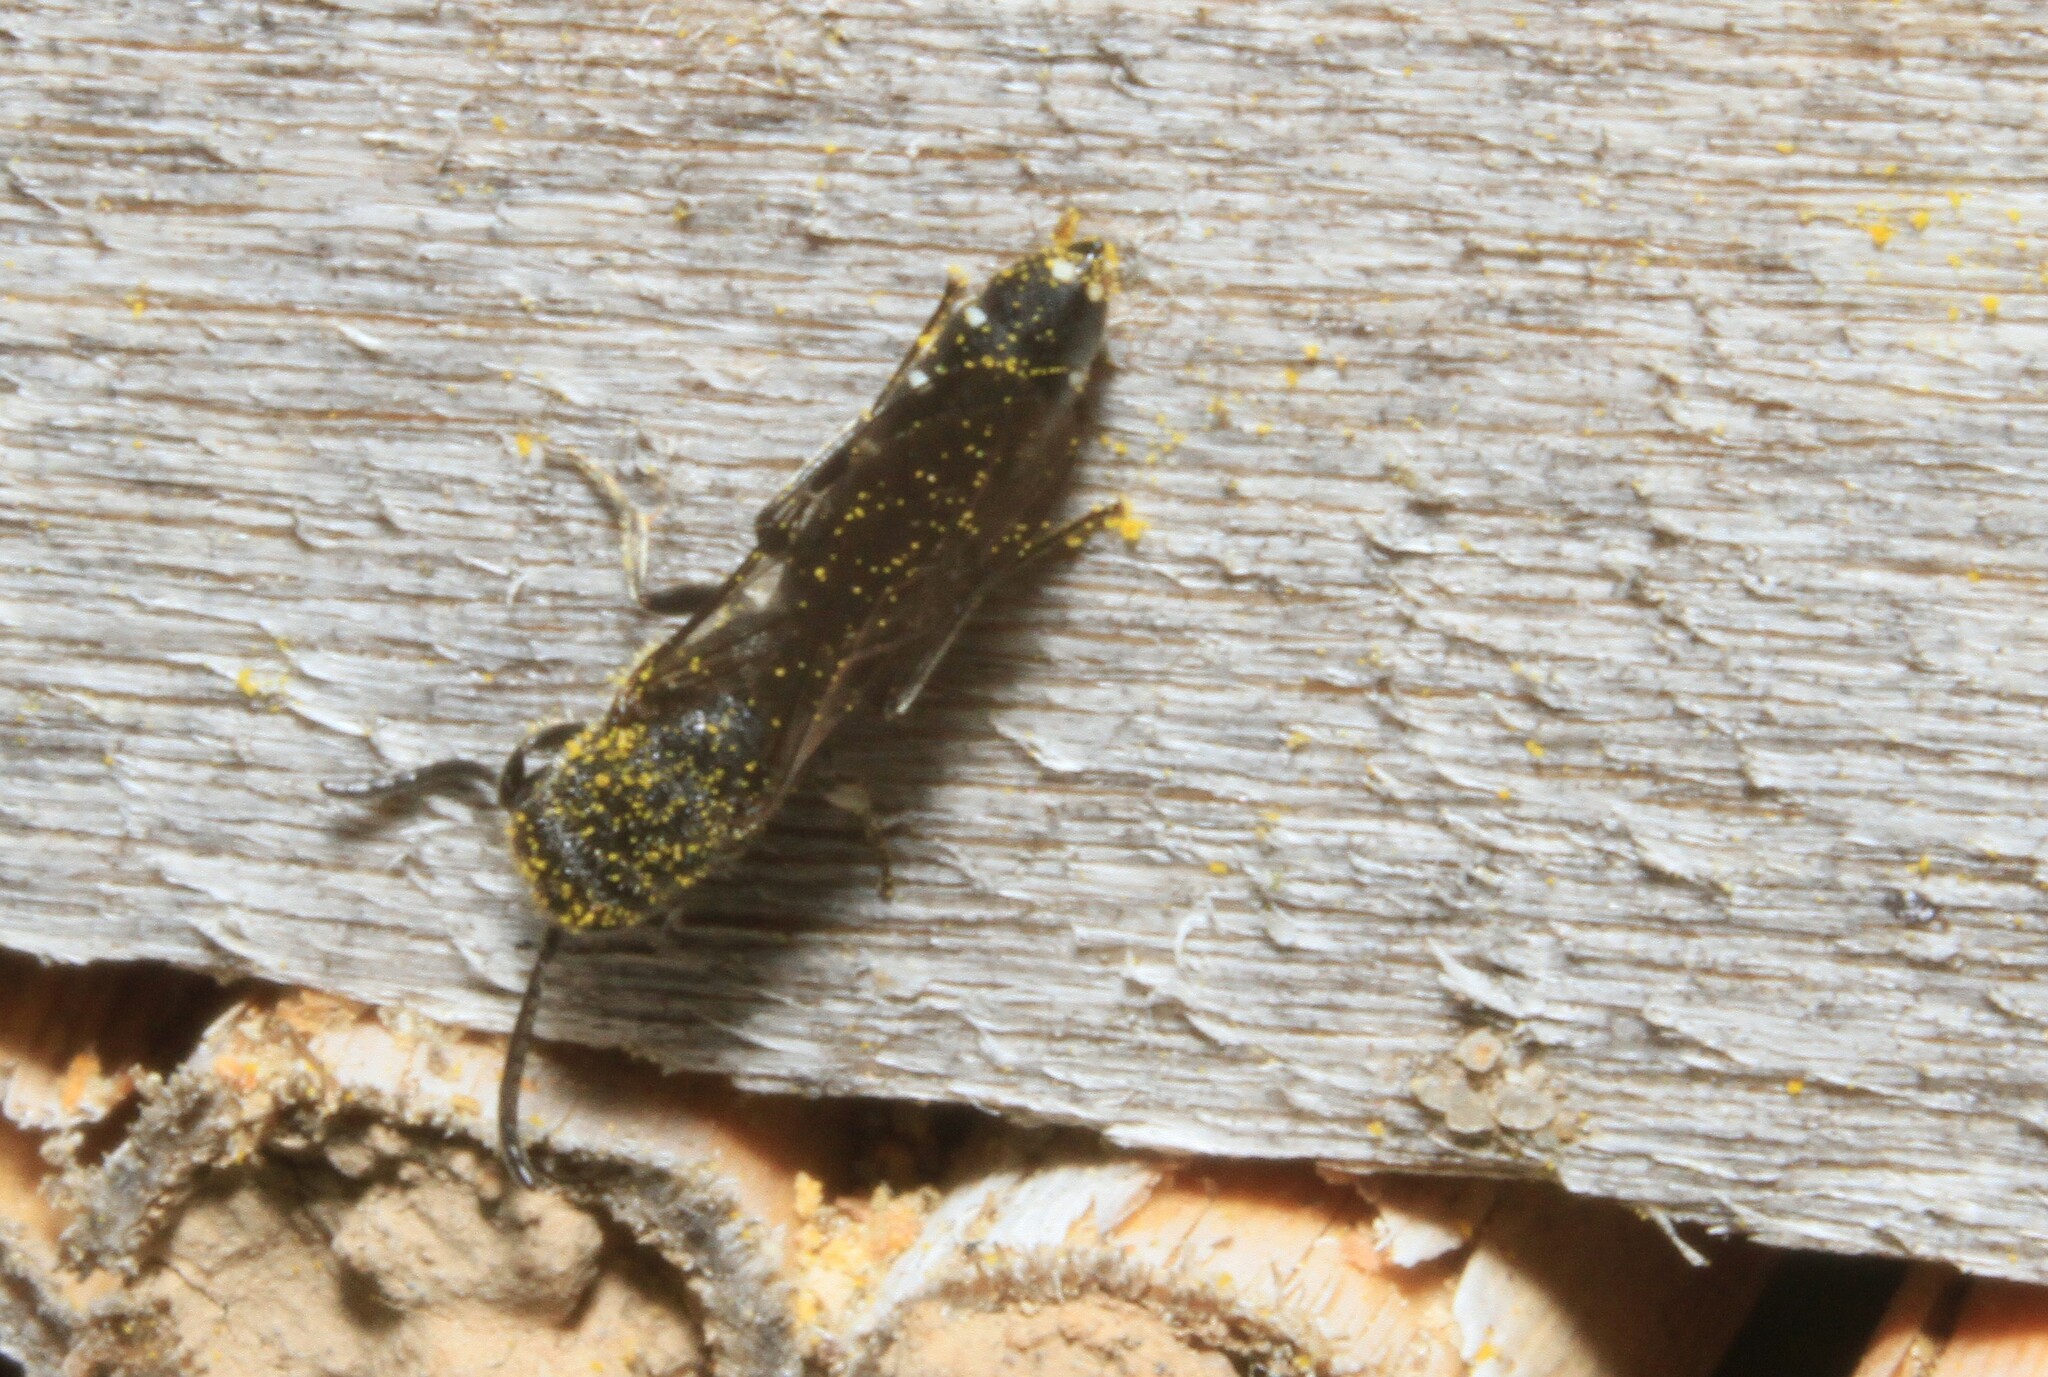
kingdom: Animalia
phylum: Arthropoda
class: Insecta
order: Hymenoptera
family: Sapygidae
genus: Sapygina
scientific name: Sapygina decemguttata
